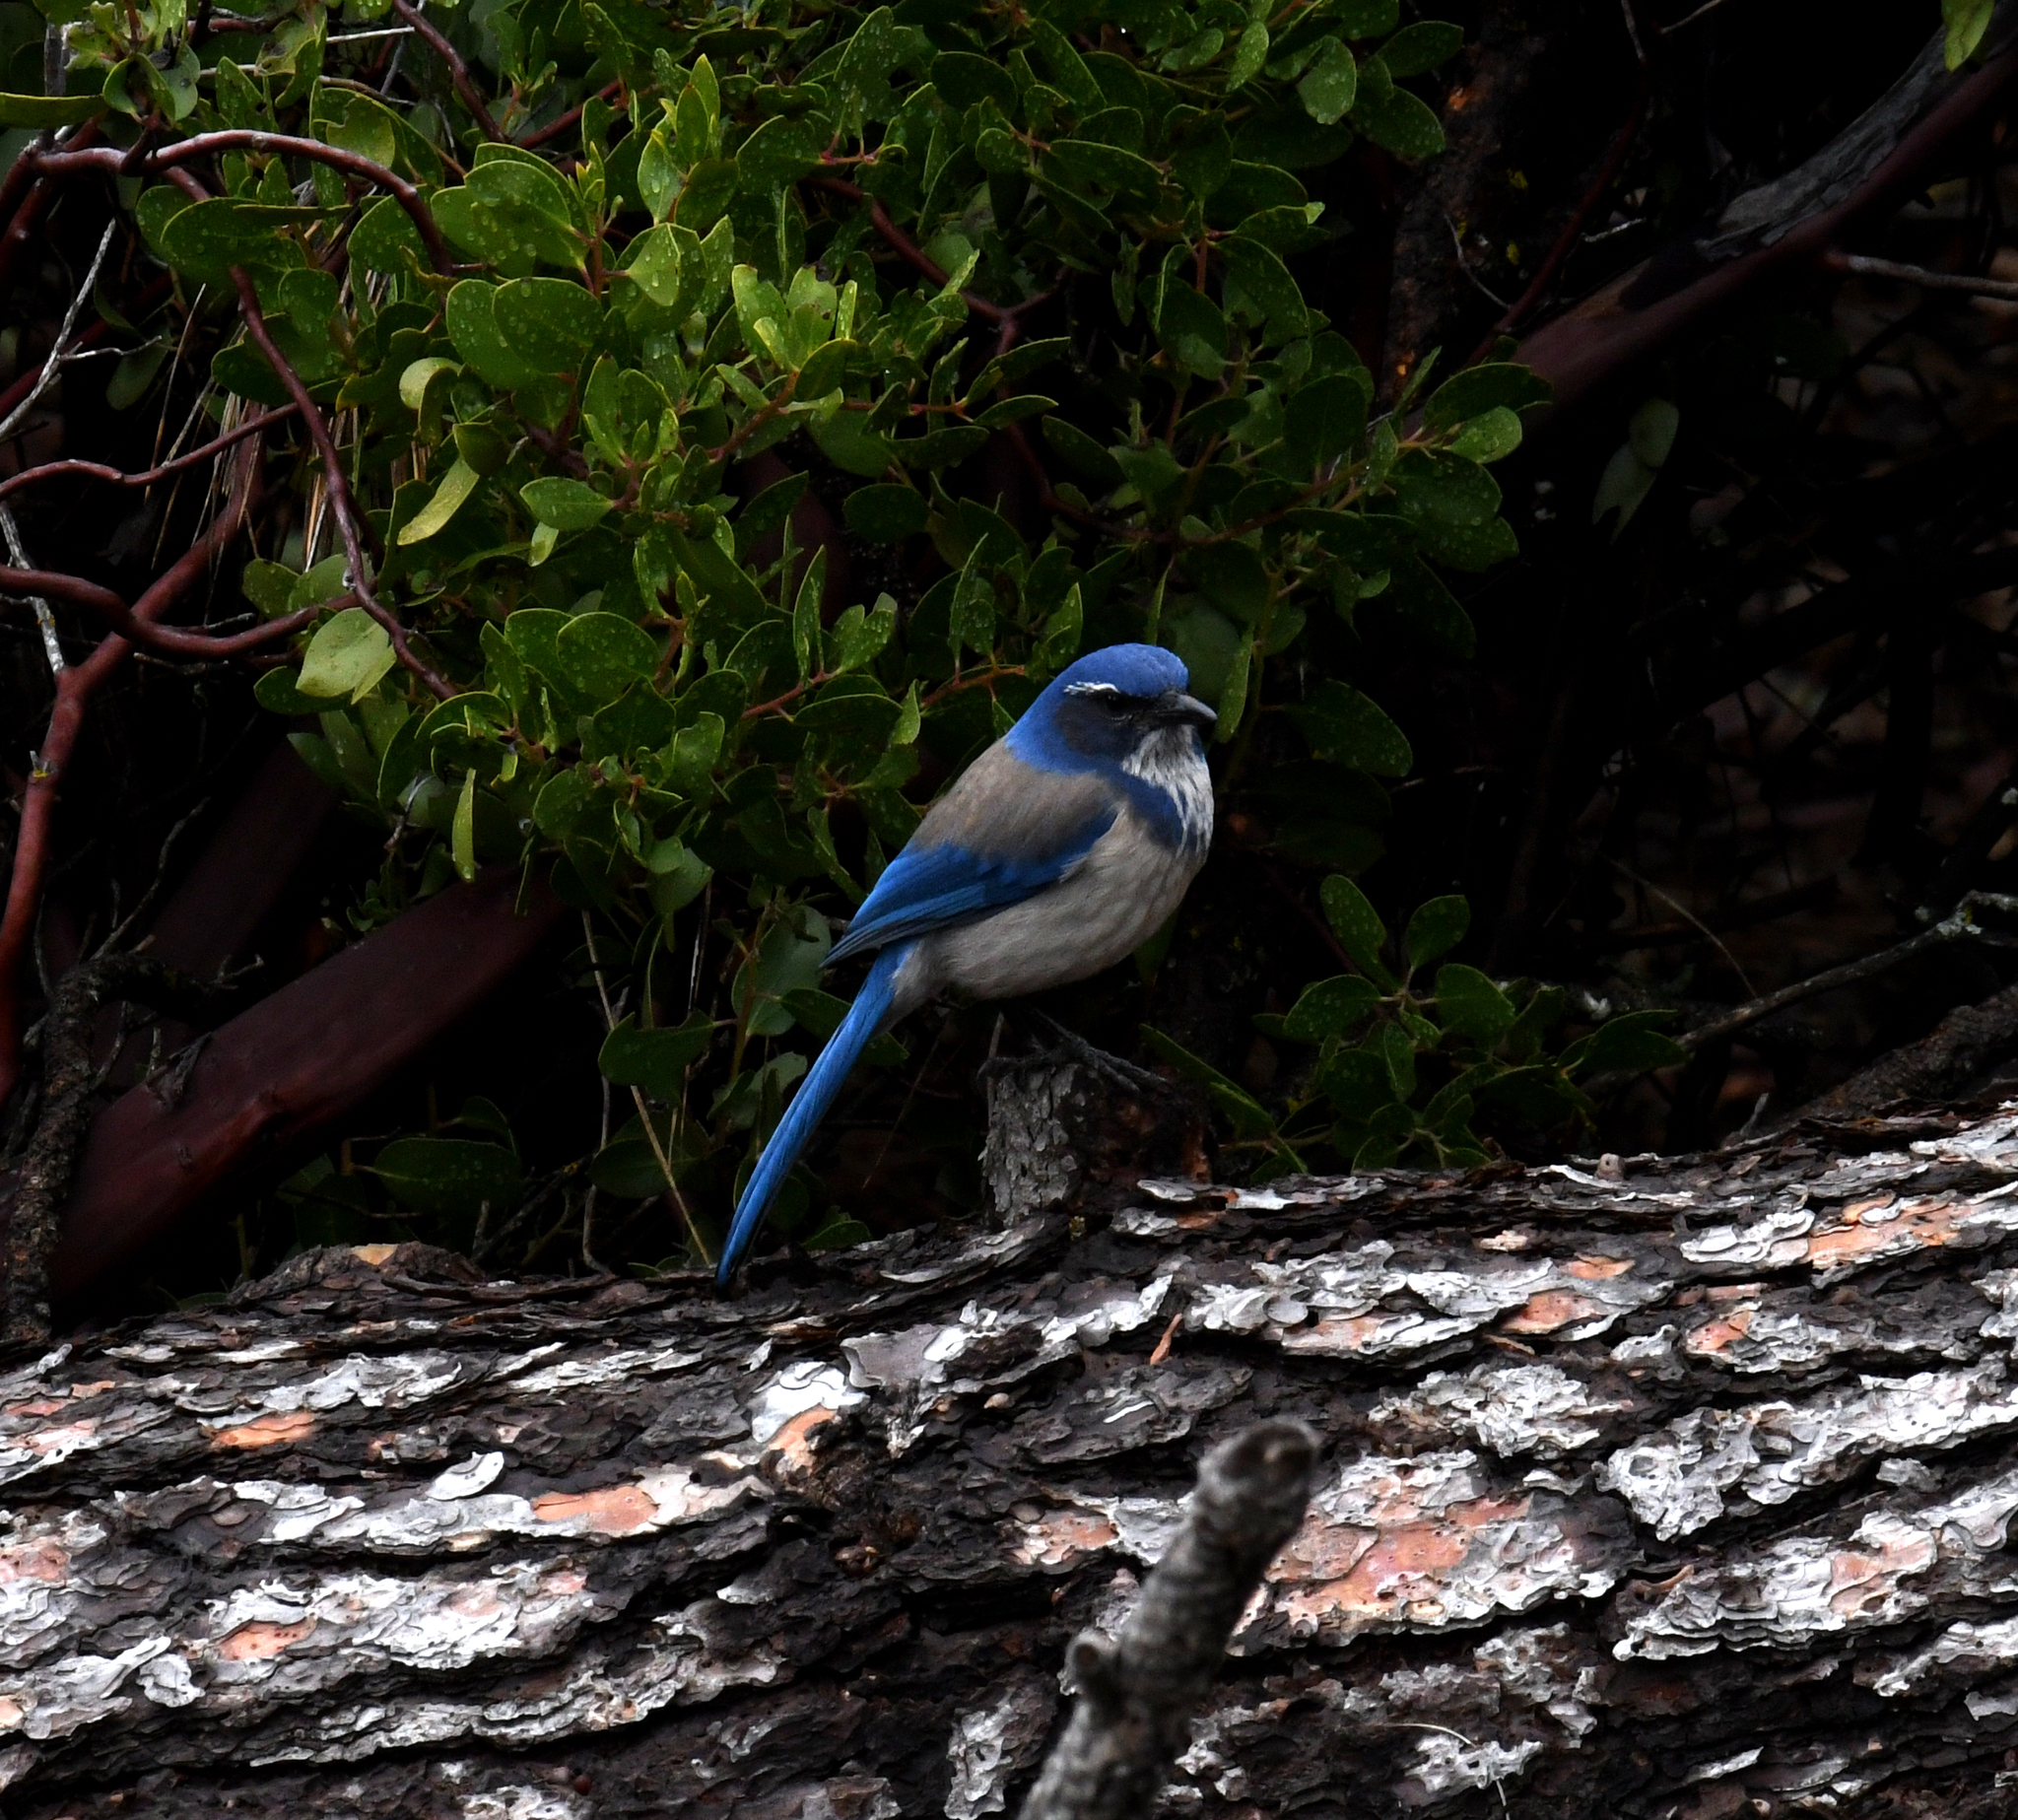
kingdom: Animalia
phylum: Chordata
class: Aves
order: Passeriformes
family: Corvidae
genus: Aphelocoma
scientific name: Aphelocoma californica
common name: California scrub-jay
